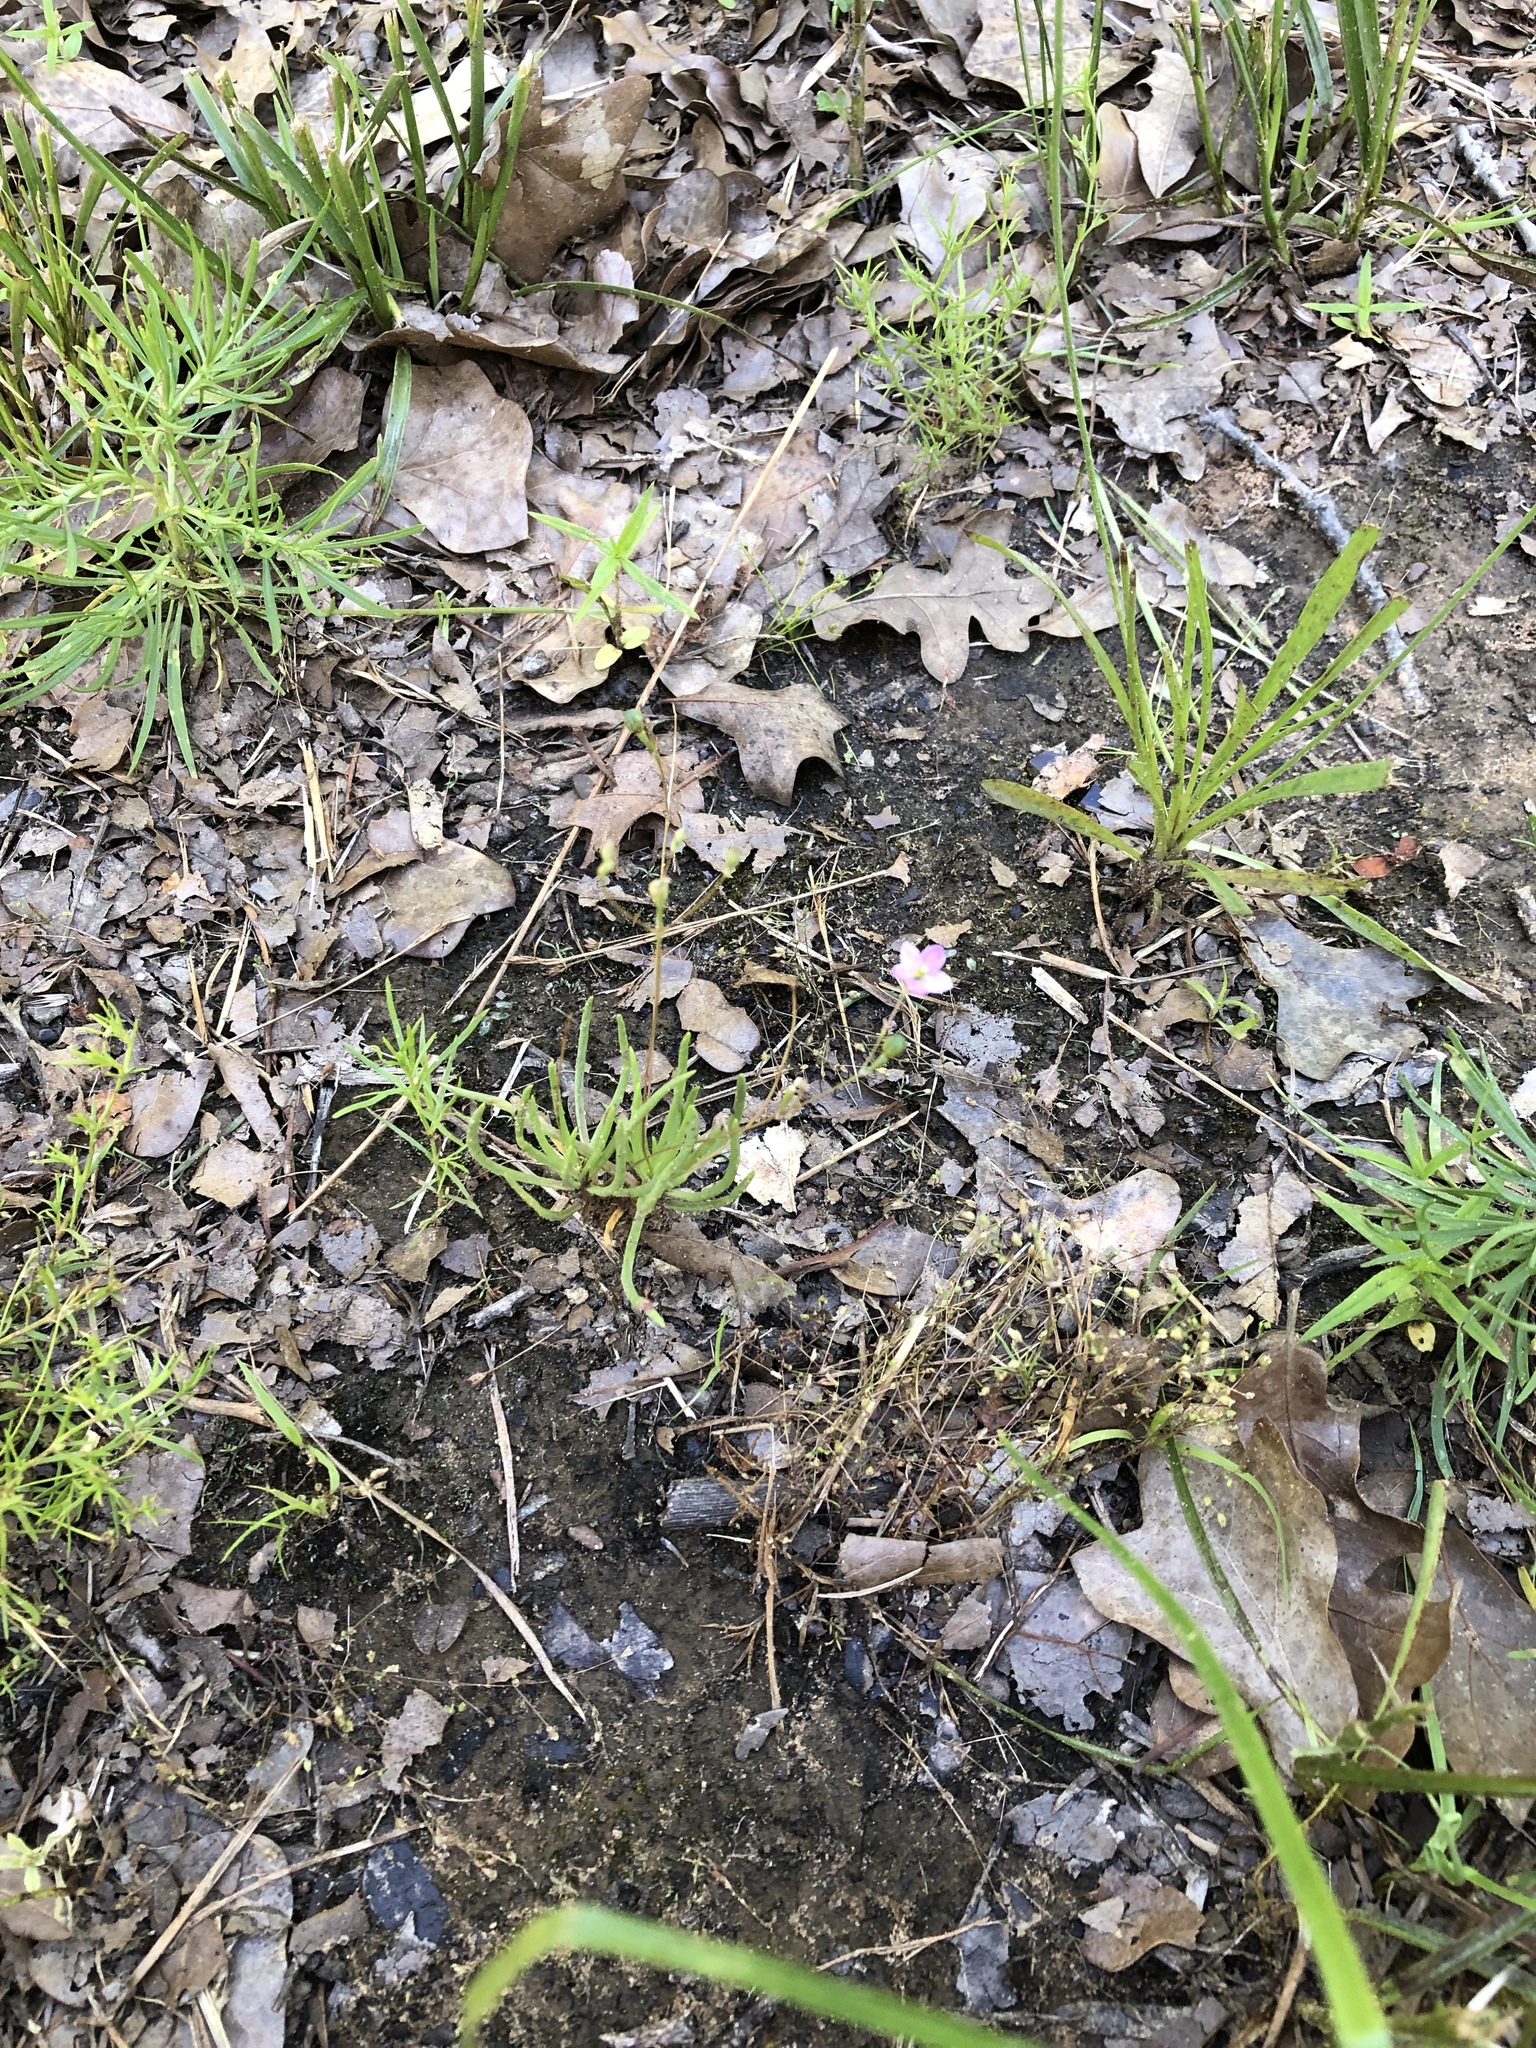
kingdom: Plantae
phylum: Tracheophyta
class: Magnoliopsida
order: Caryophyllales
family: Montiaceae
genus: Phemeranthus
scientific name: Phemeranthus parviflorus
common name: Sunbright
